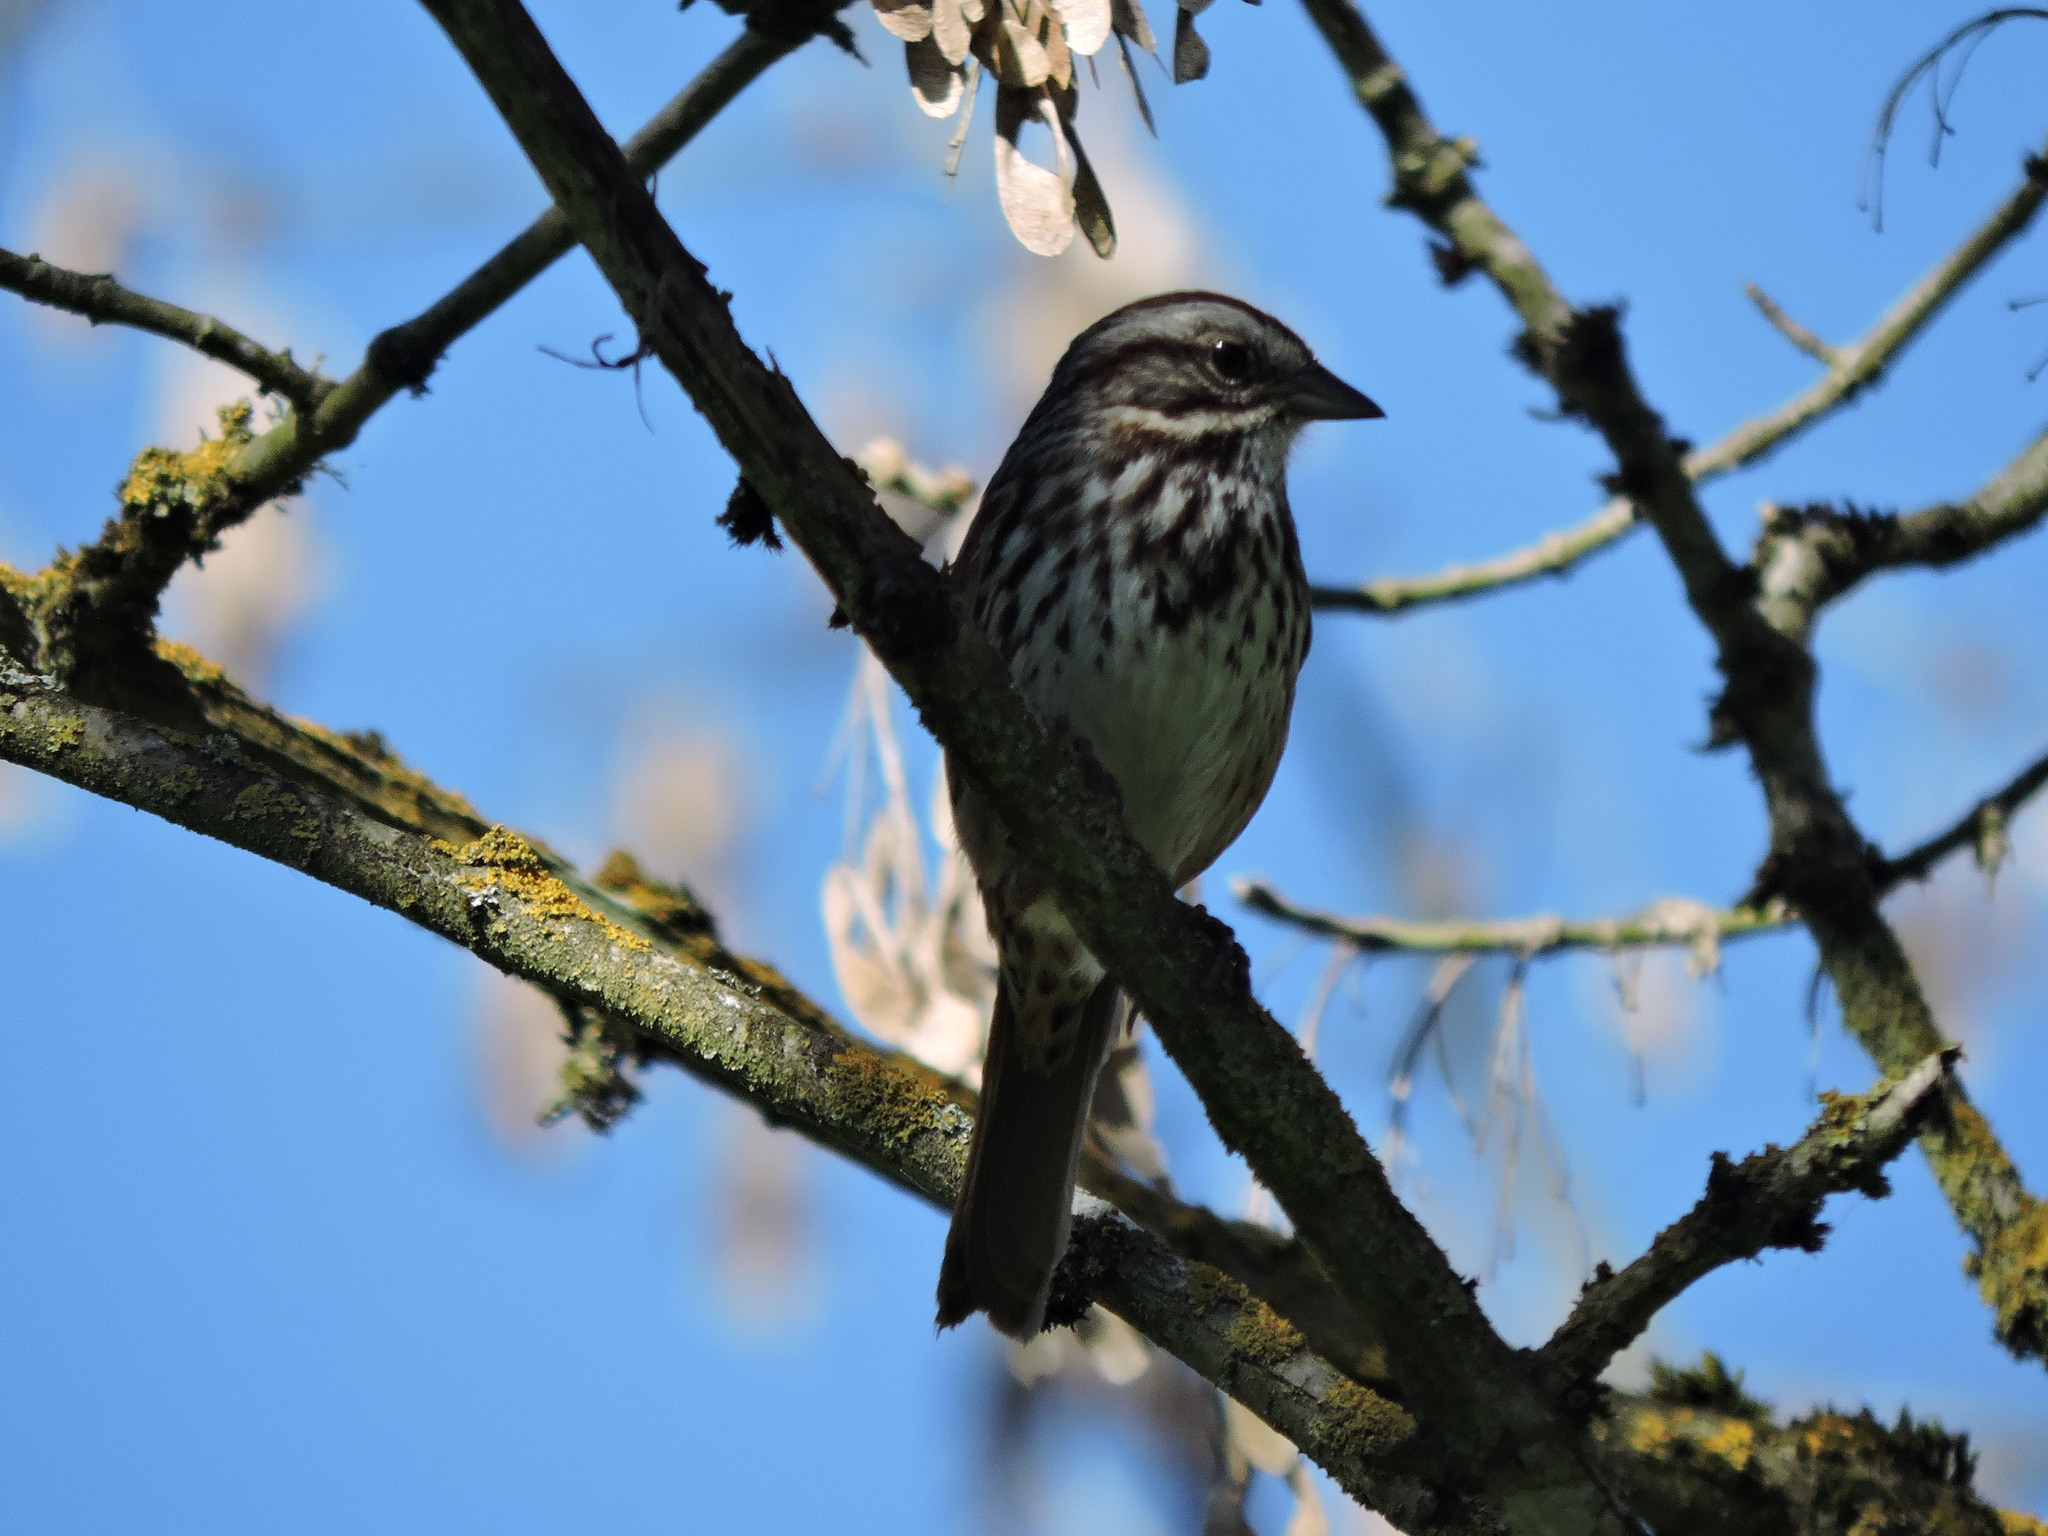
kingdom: Animalia
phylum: Chordata
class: Aves
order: Passeriformes
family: Passerellidae
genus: Melospiza
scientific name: Melospiza melodia
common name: Song sparrow
